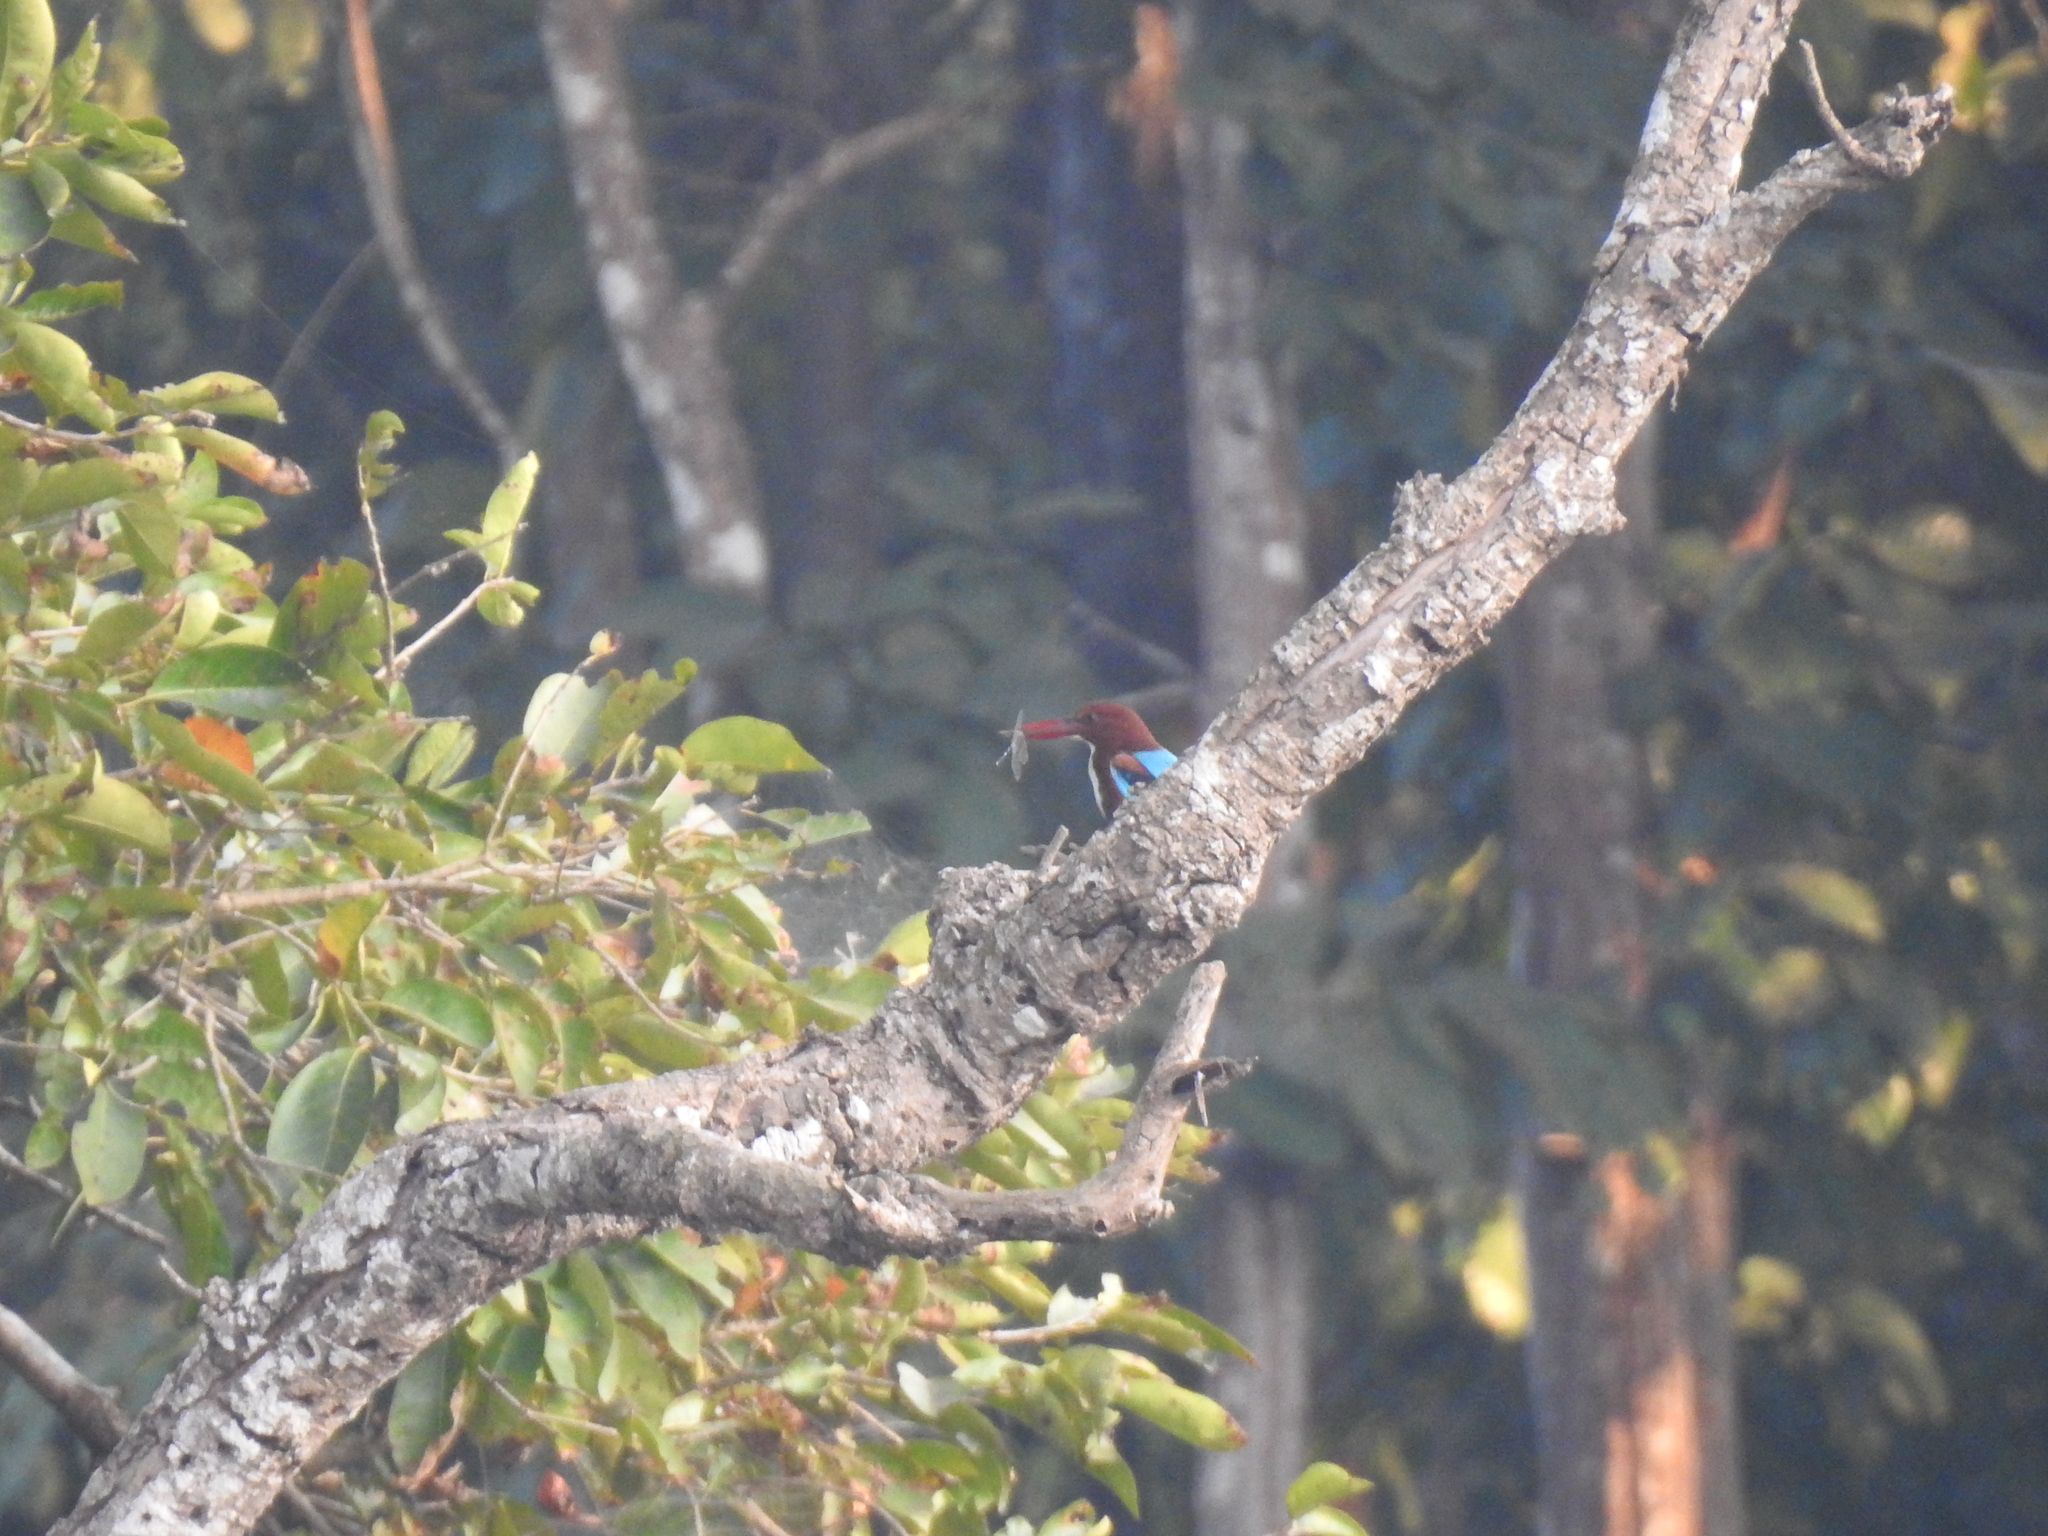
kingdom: Animalia
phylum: Chordata
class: Aves
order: Coraciiformes
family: Alcedinidae
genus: Halcyon
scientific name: Halcyon smyrnensis
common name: White-throated kingfisher
